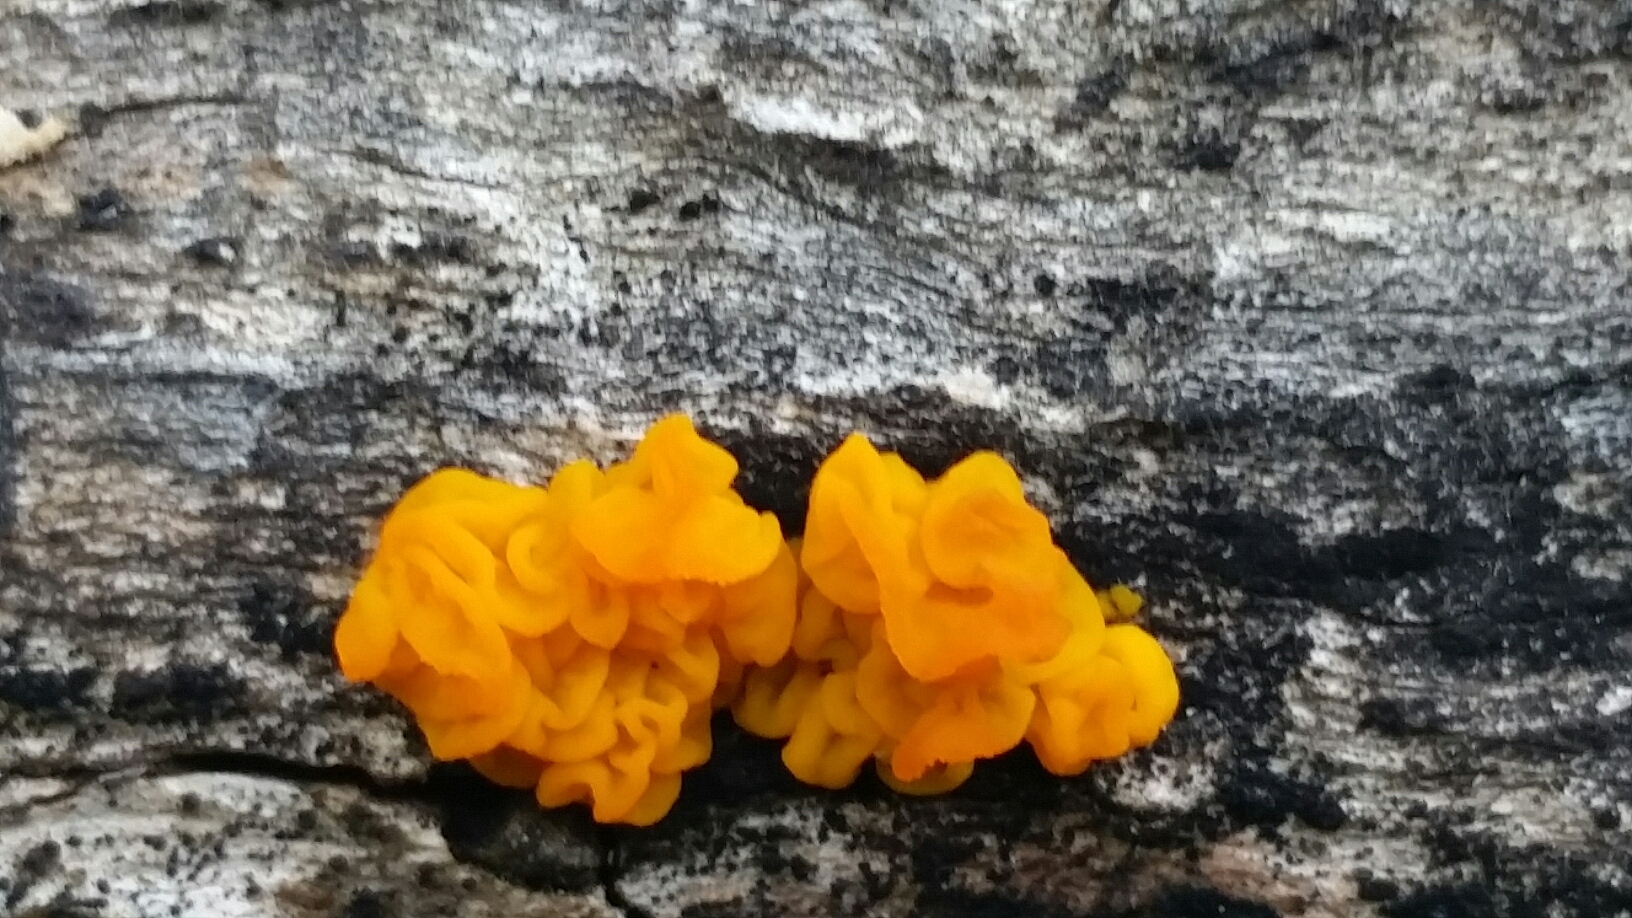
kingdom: Fungi
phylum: Basidiomycota
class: Dacrymycetes
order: Dacrymycetales
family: Dacrymycetaceae
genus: Dacrymyces
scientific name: Dacrymyces chrysospermus
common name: Orange jelly spot
